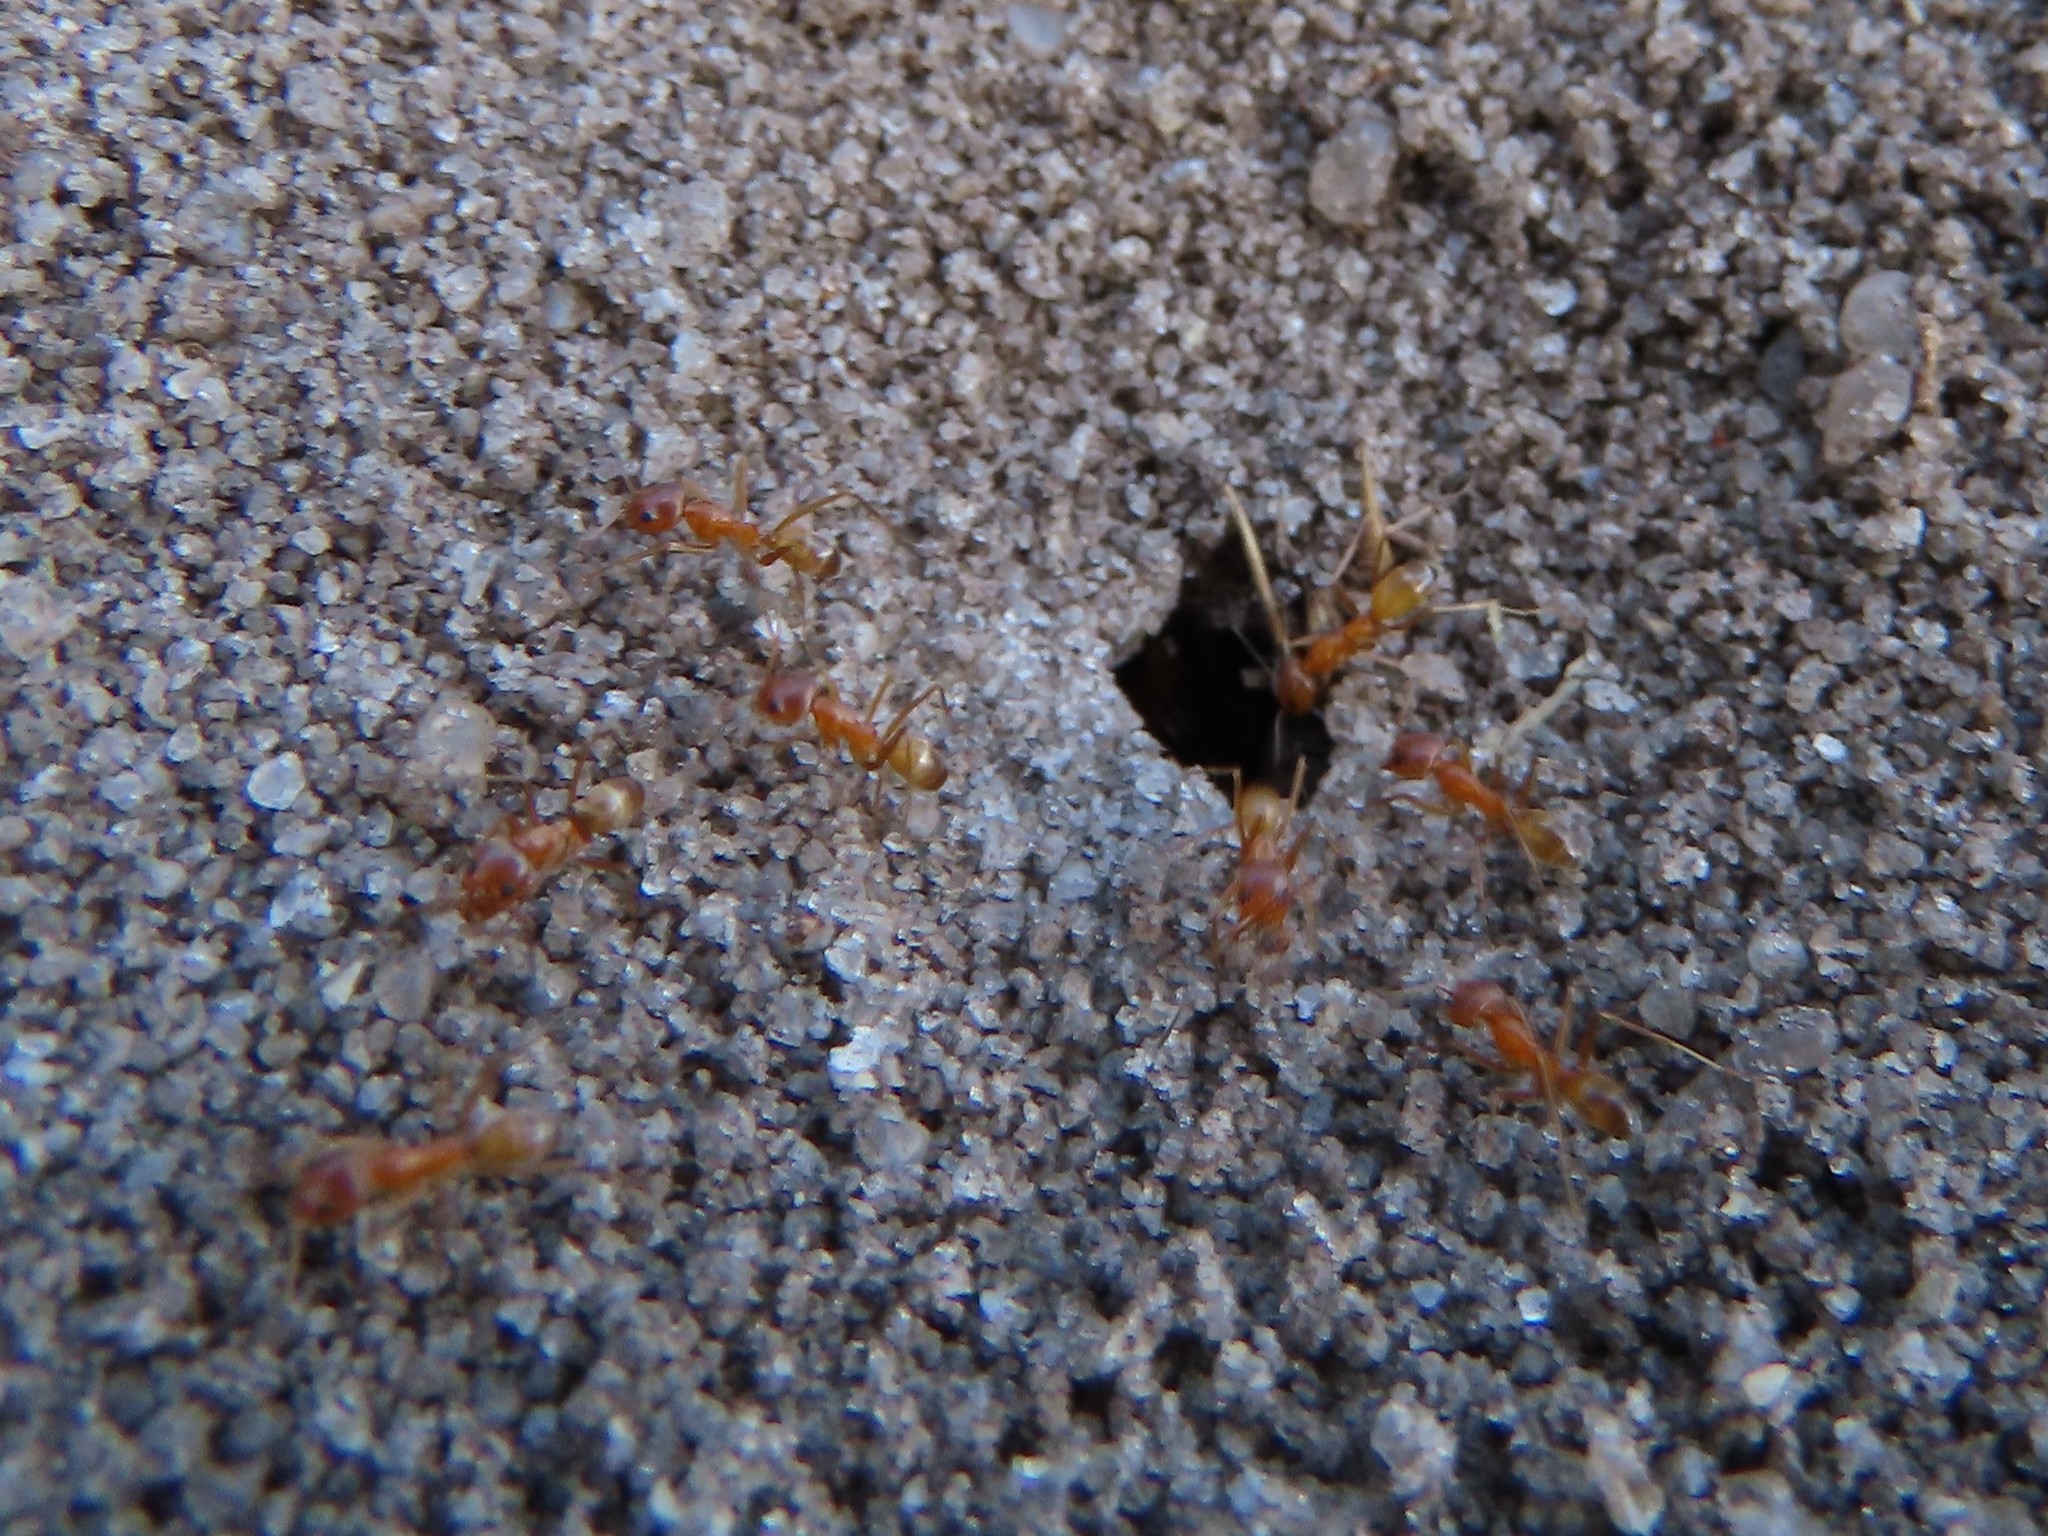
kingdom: Animalia
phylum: Arthropoda
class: Insecta
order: Hymenoptera
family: Formicidae
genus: Dorymyrmex
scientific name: Dorymyrmex bureni
